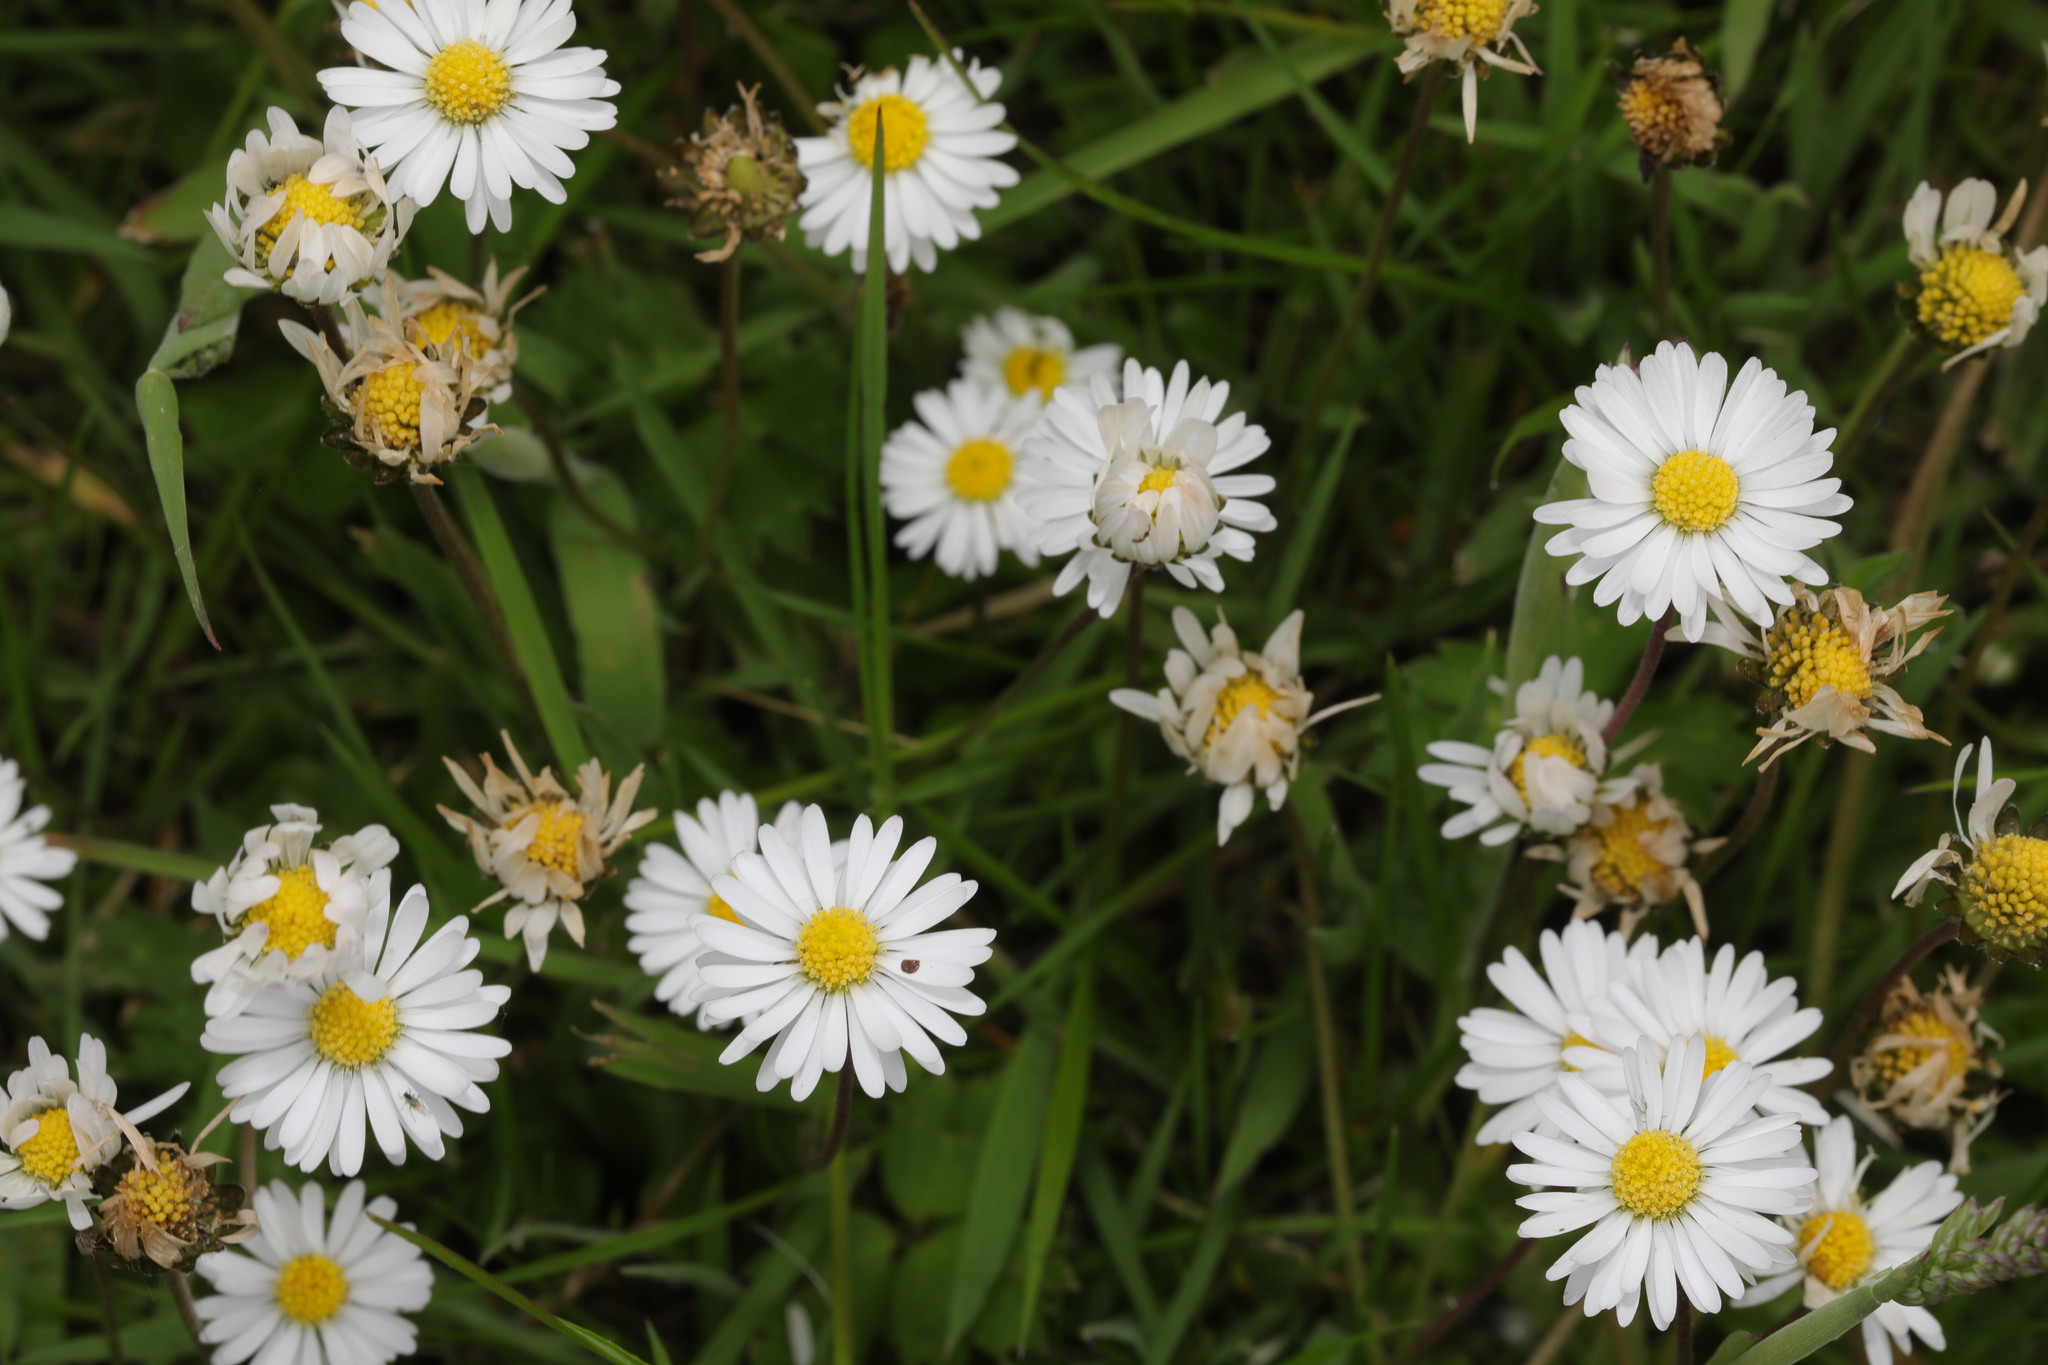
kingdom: Plantae
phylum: Tracheophyta
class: Magnoliopsida
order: Asterales
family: Asteraceae
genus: Bellis
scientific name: Bellis perennis
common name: Lawndaisy
